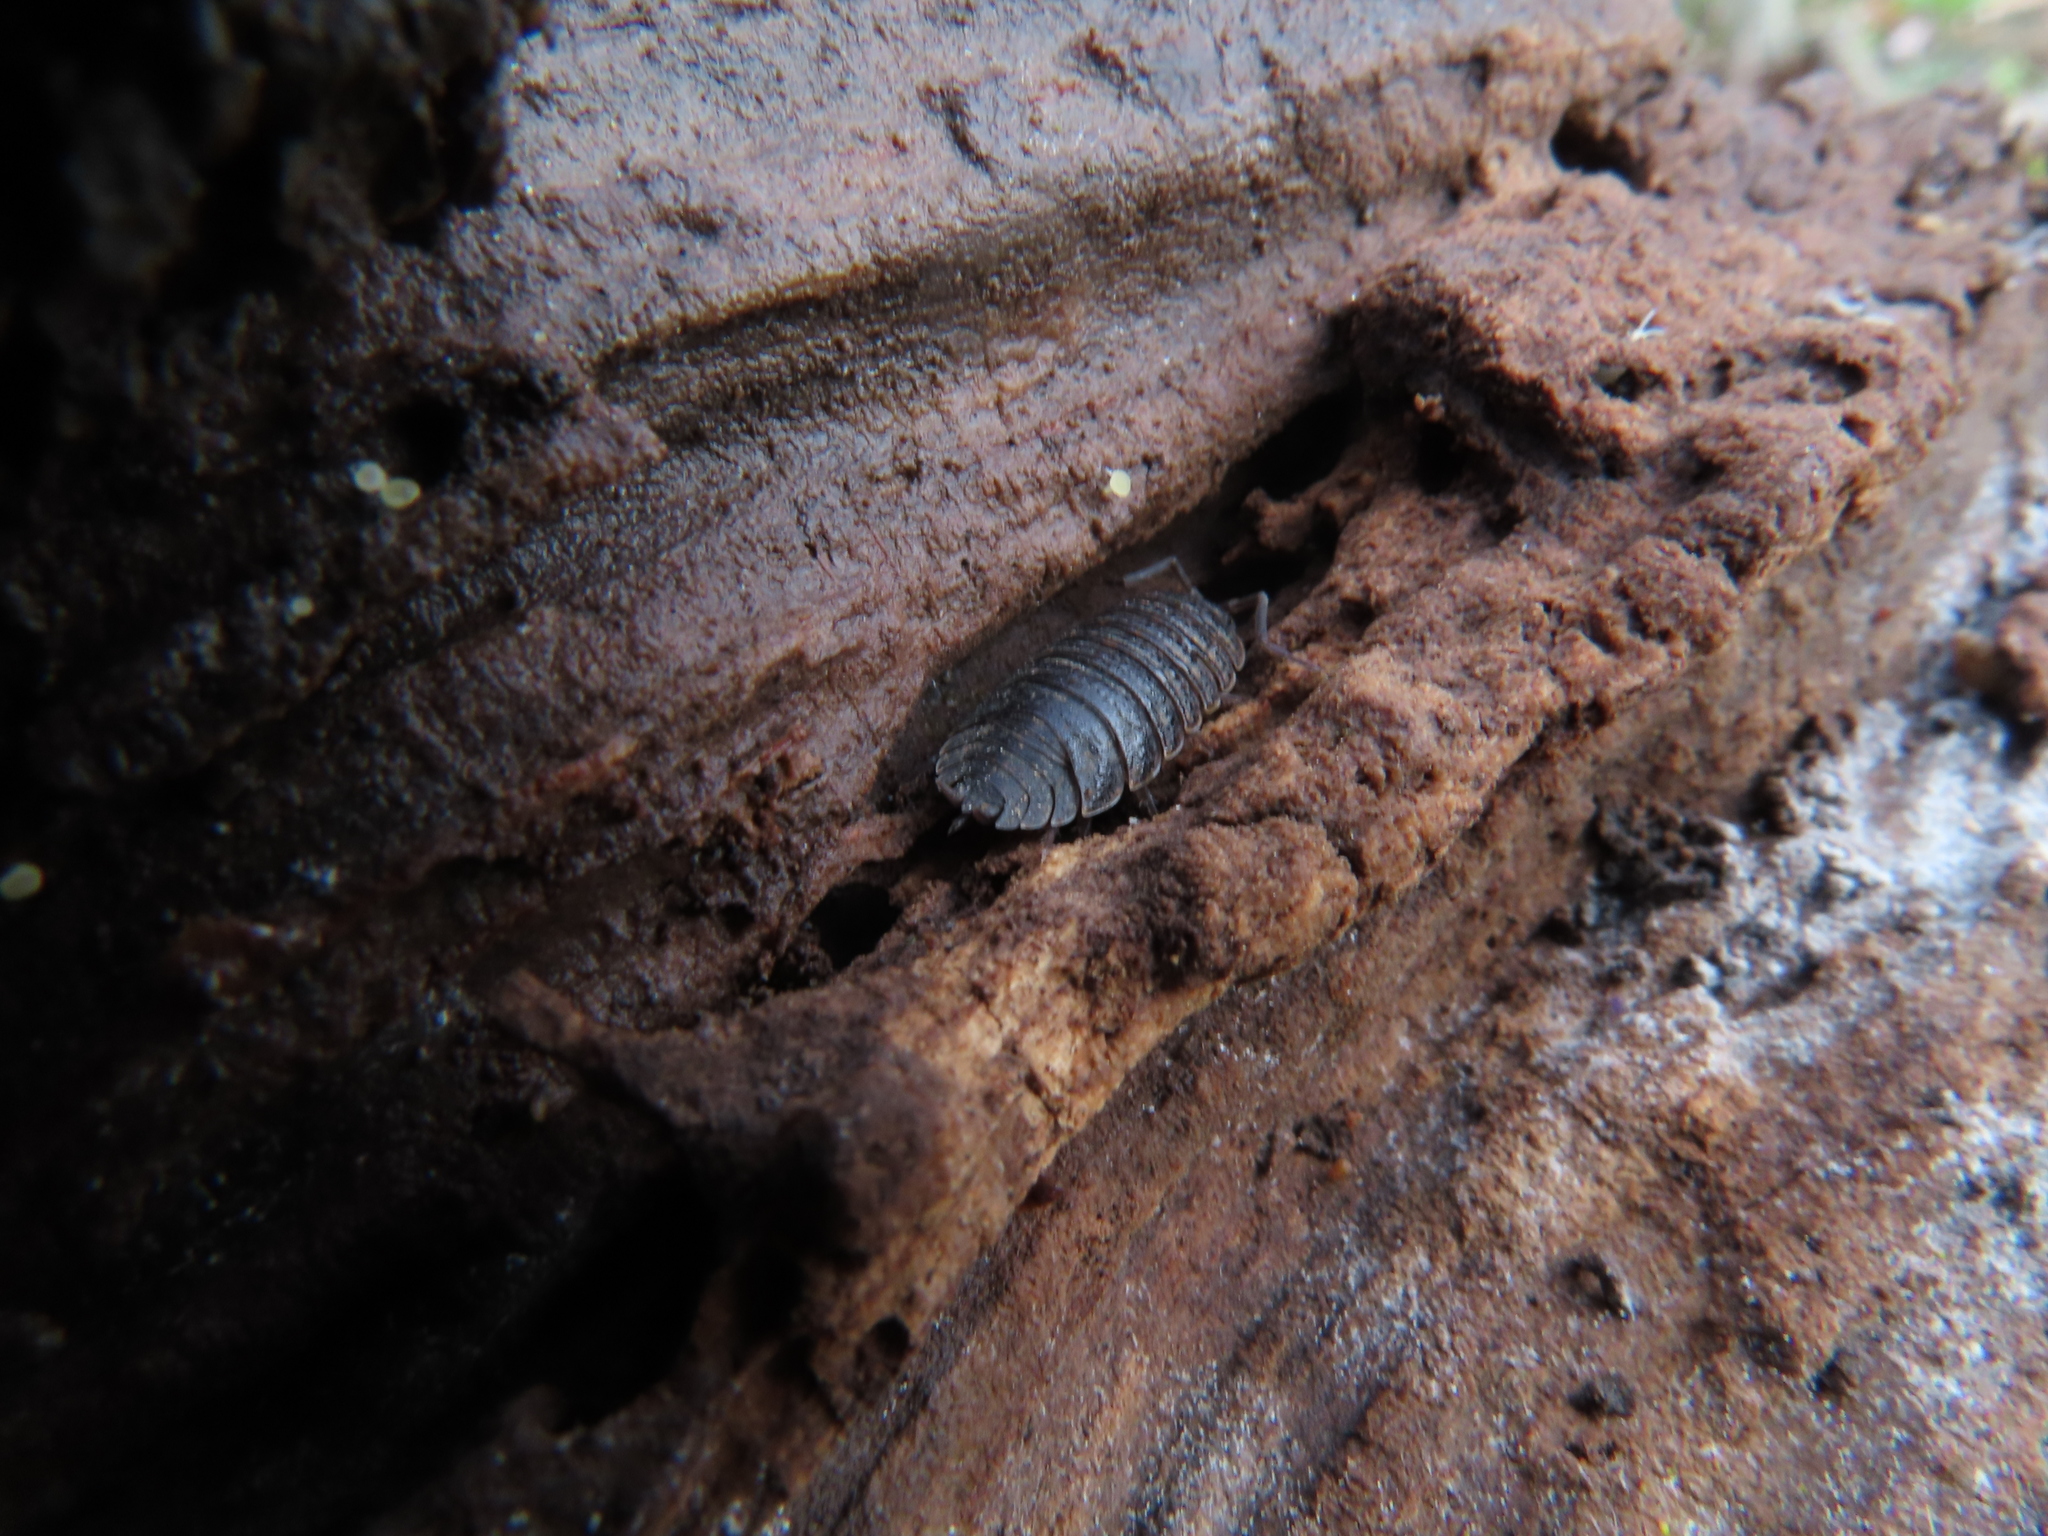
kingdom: Animalia
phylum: Arthropoda
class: Malacostraca
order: Isopoda
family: Porcellionidae
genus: Porcellio
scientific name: Porcellio scaber
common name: Common rough woodlouse
